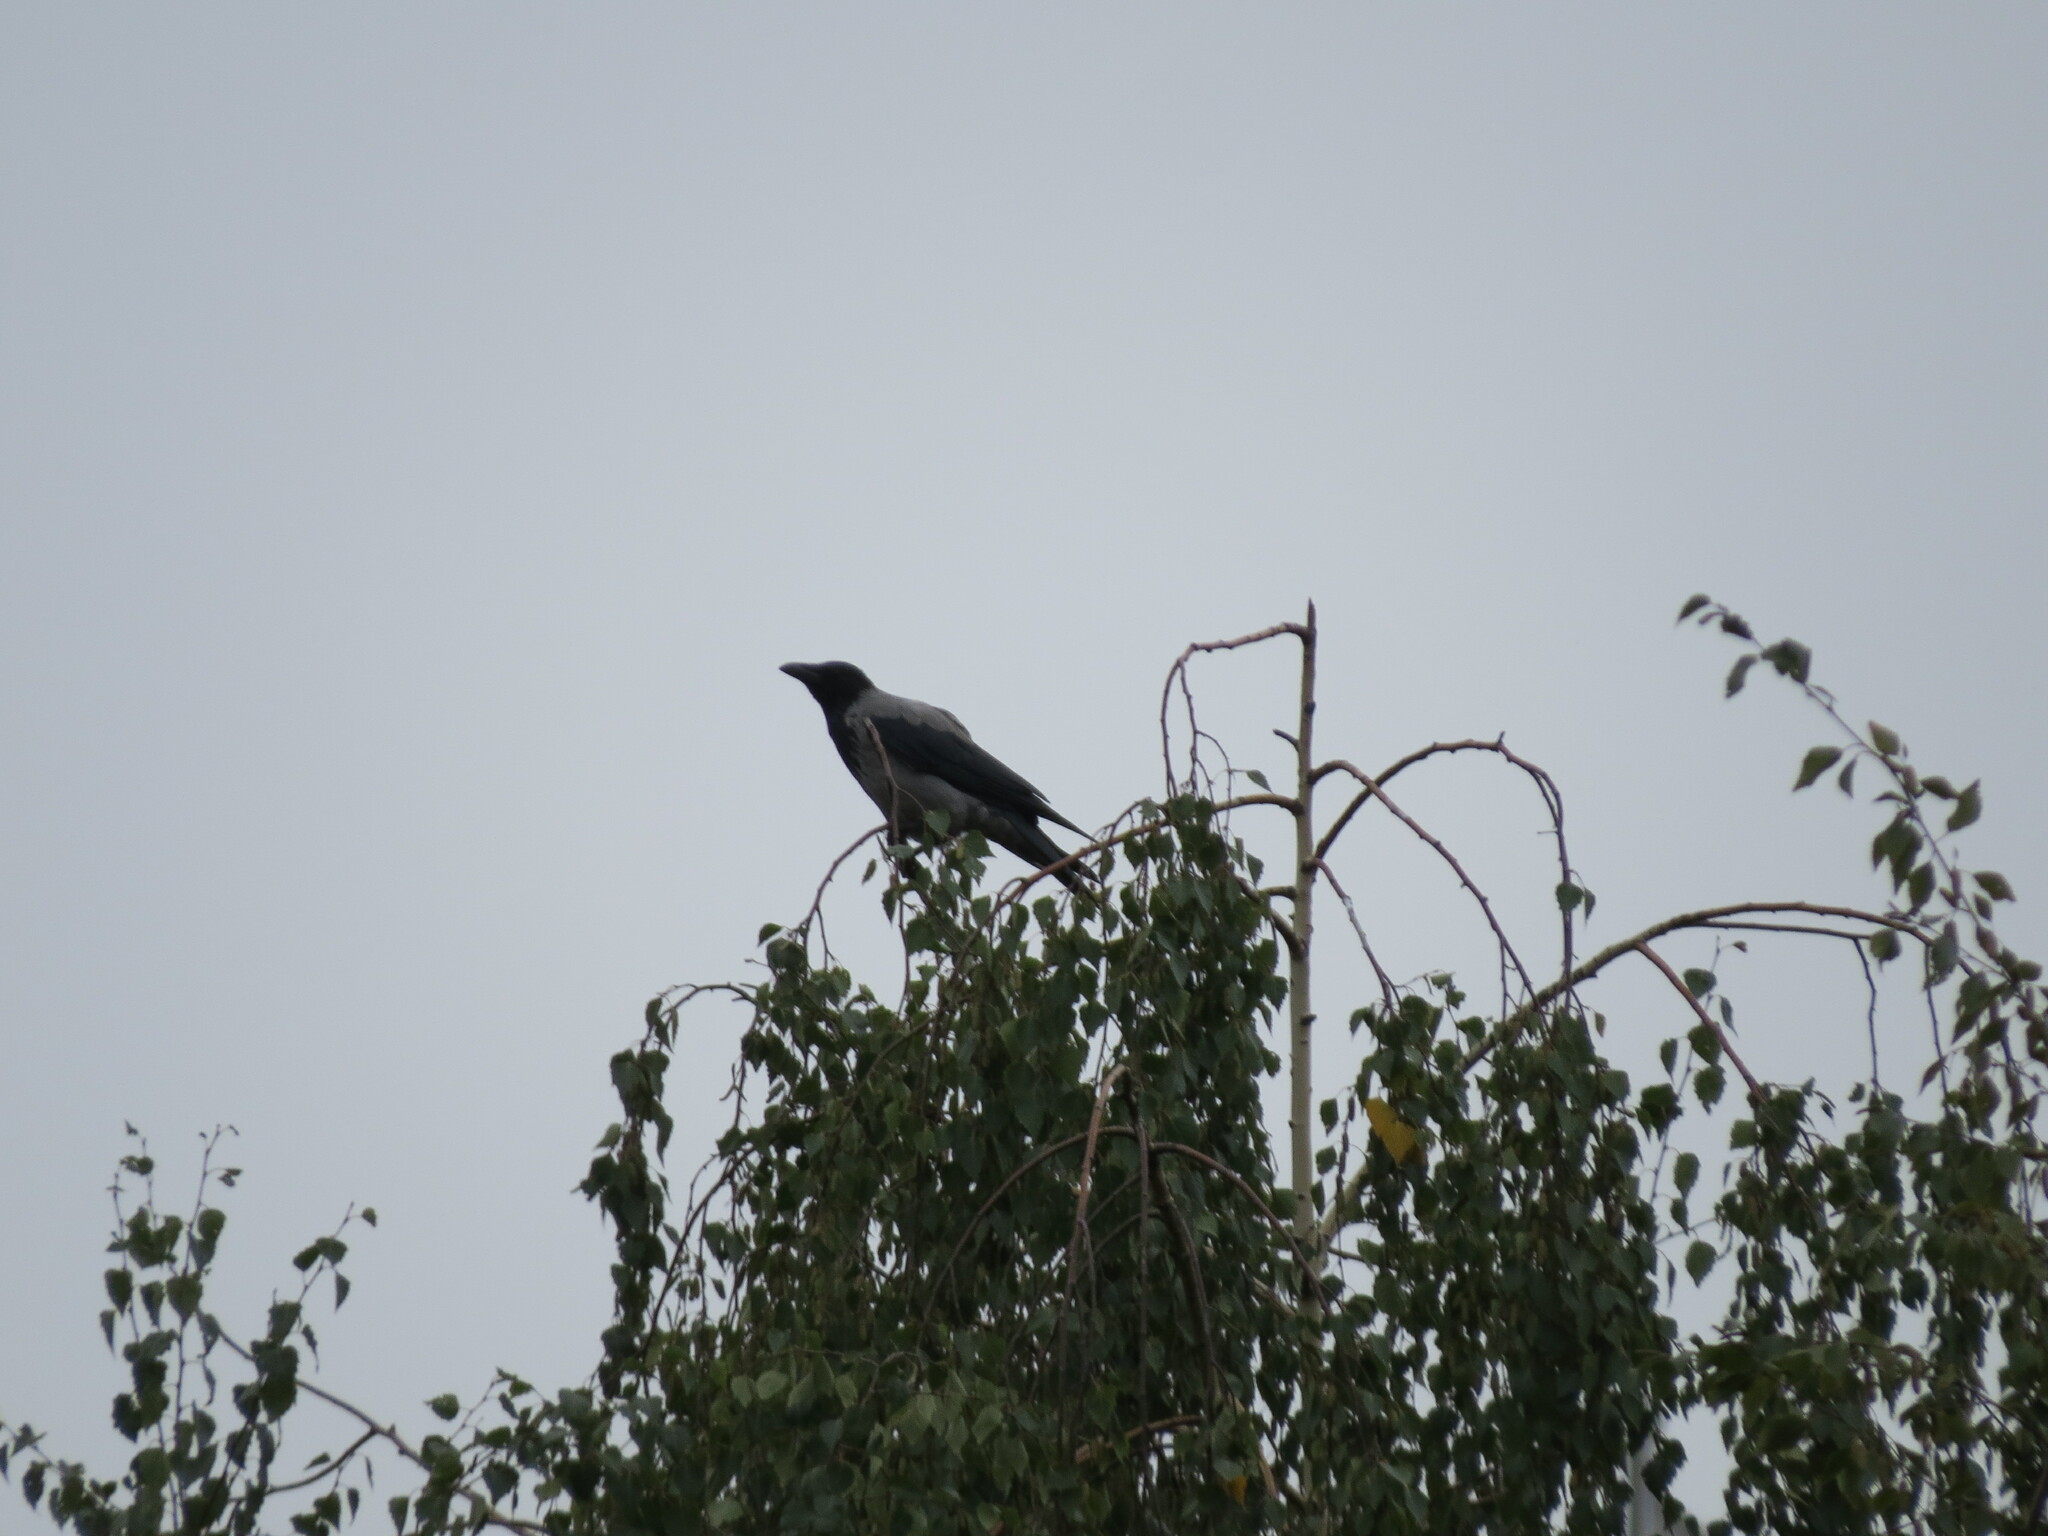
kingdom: Animalia
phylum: Chordata
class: Aves
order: Passeriformes
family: Corvidae
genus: Corvus
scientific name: Corvus cornix
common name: Hooded crow
